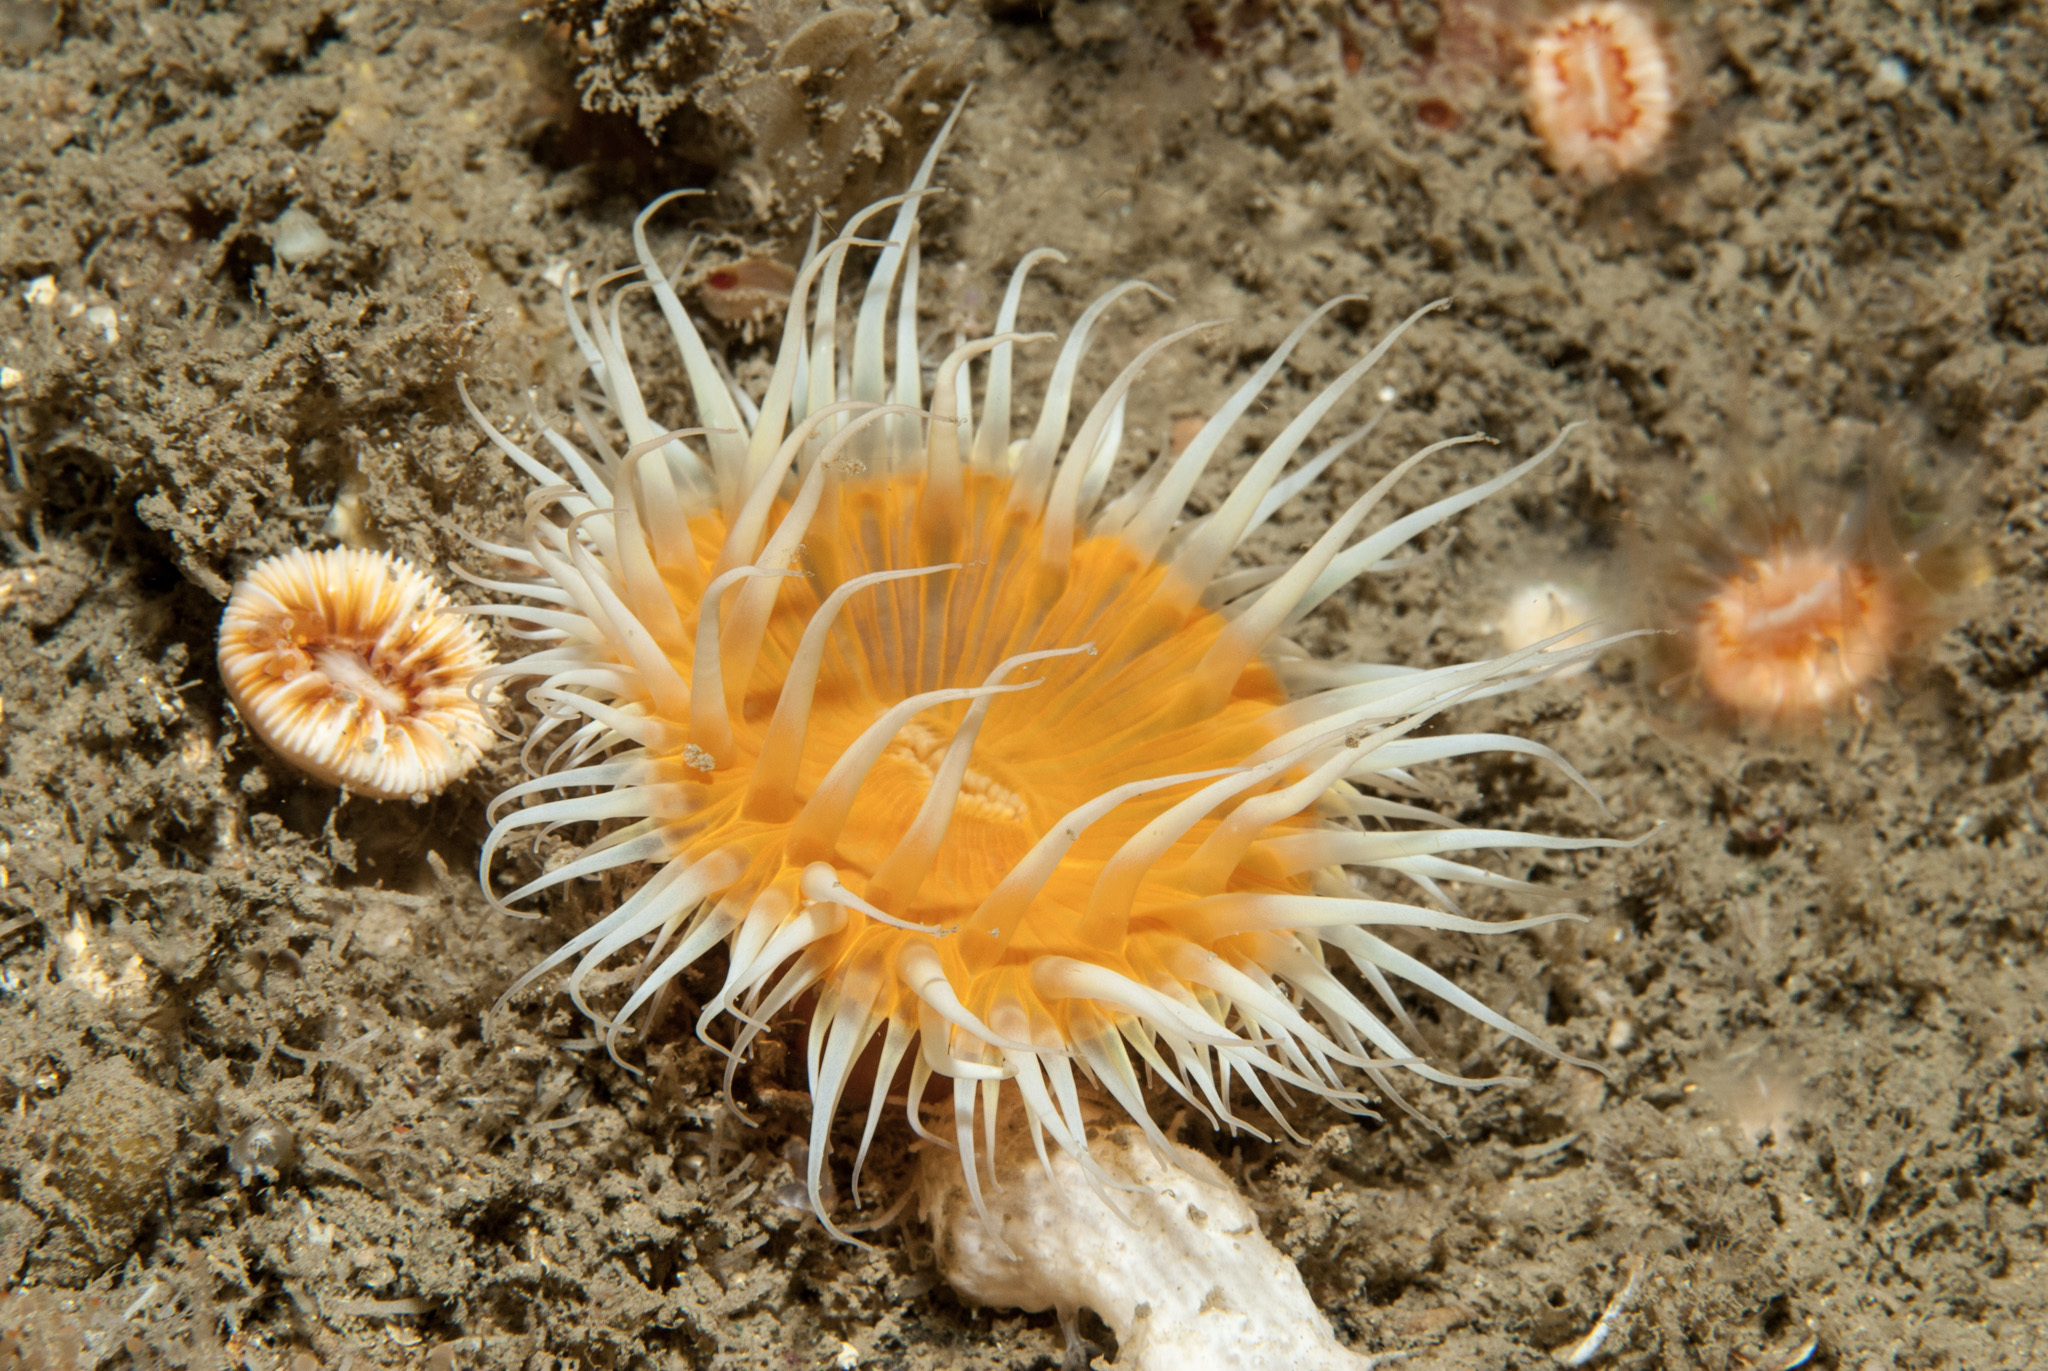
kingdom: Animalia
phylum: Cnidaria
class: Anthozoa
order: Actiniaria
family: Sagartiidae
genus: Cylista
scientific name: Cylista elegans
